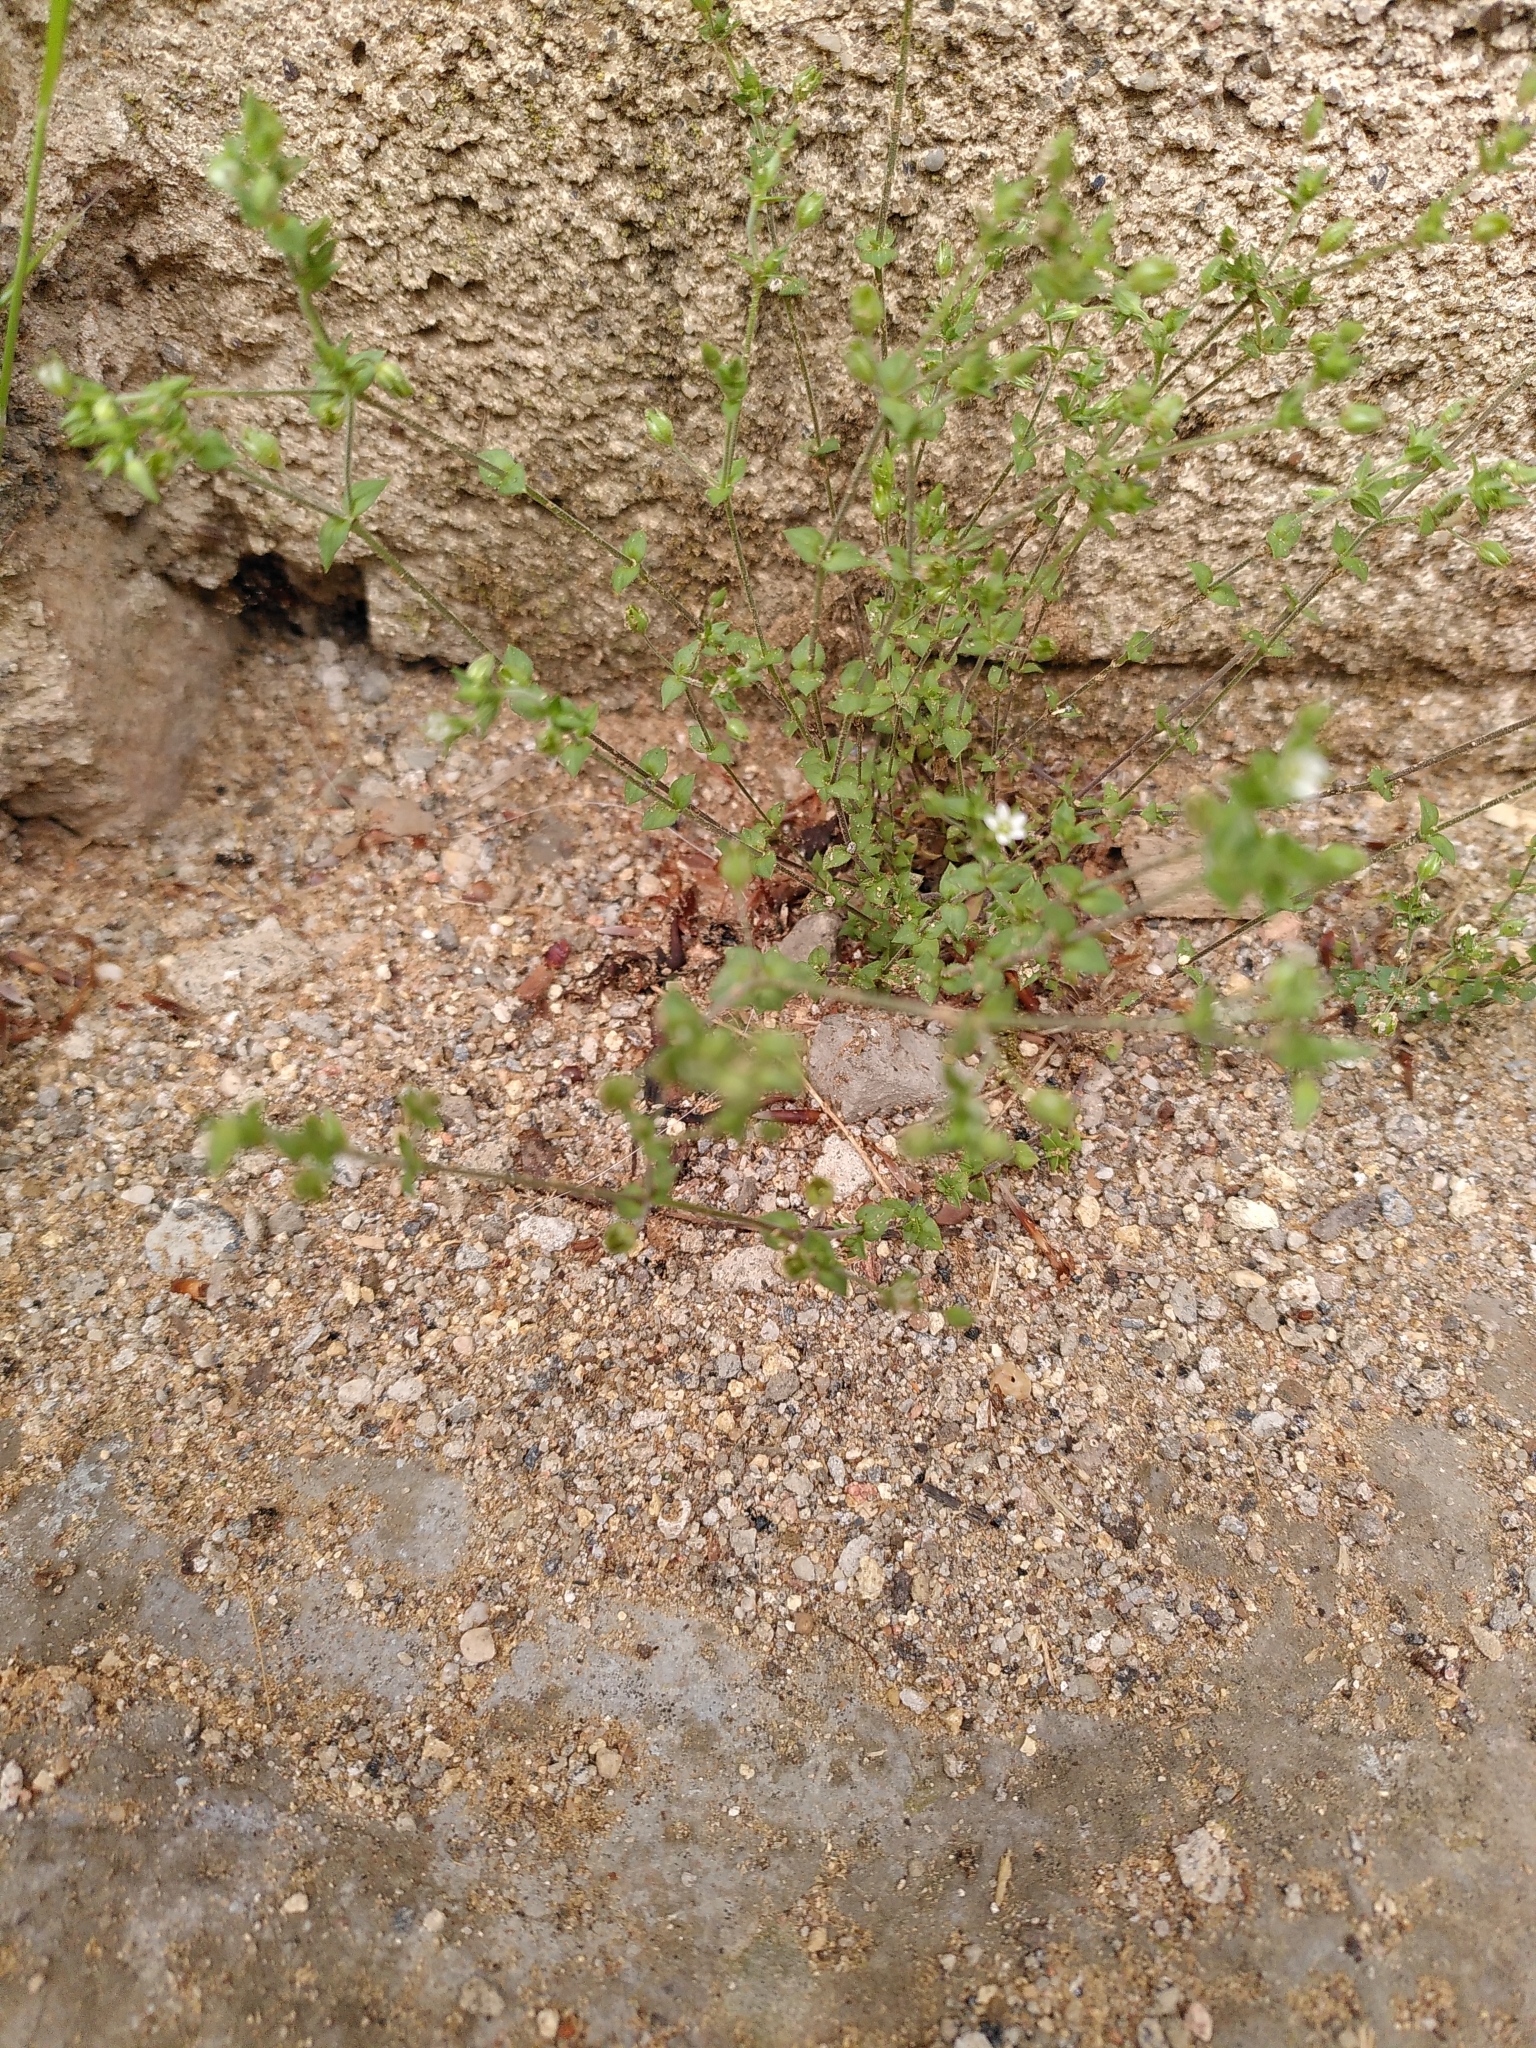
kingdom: Plantae
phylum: Tracheophyta
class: Magnoliopsida
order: Caryophyllales
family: Caryophyllaceae
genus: Arenaria
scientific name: Arenaria serpyllifolia
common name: Thyme-leaved sandwort
